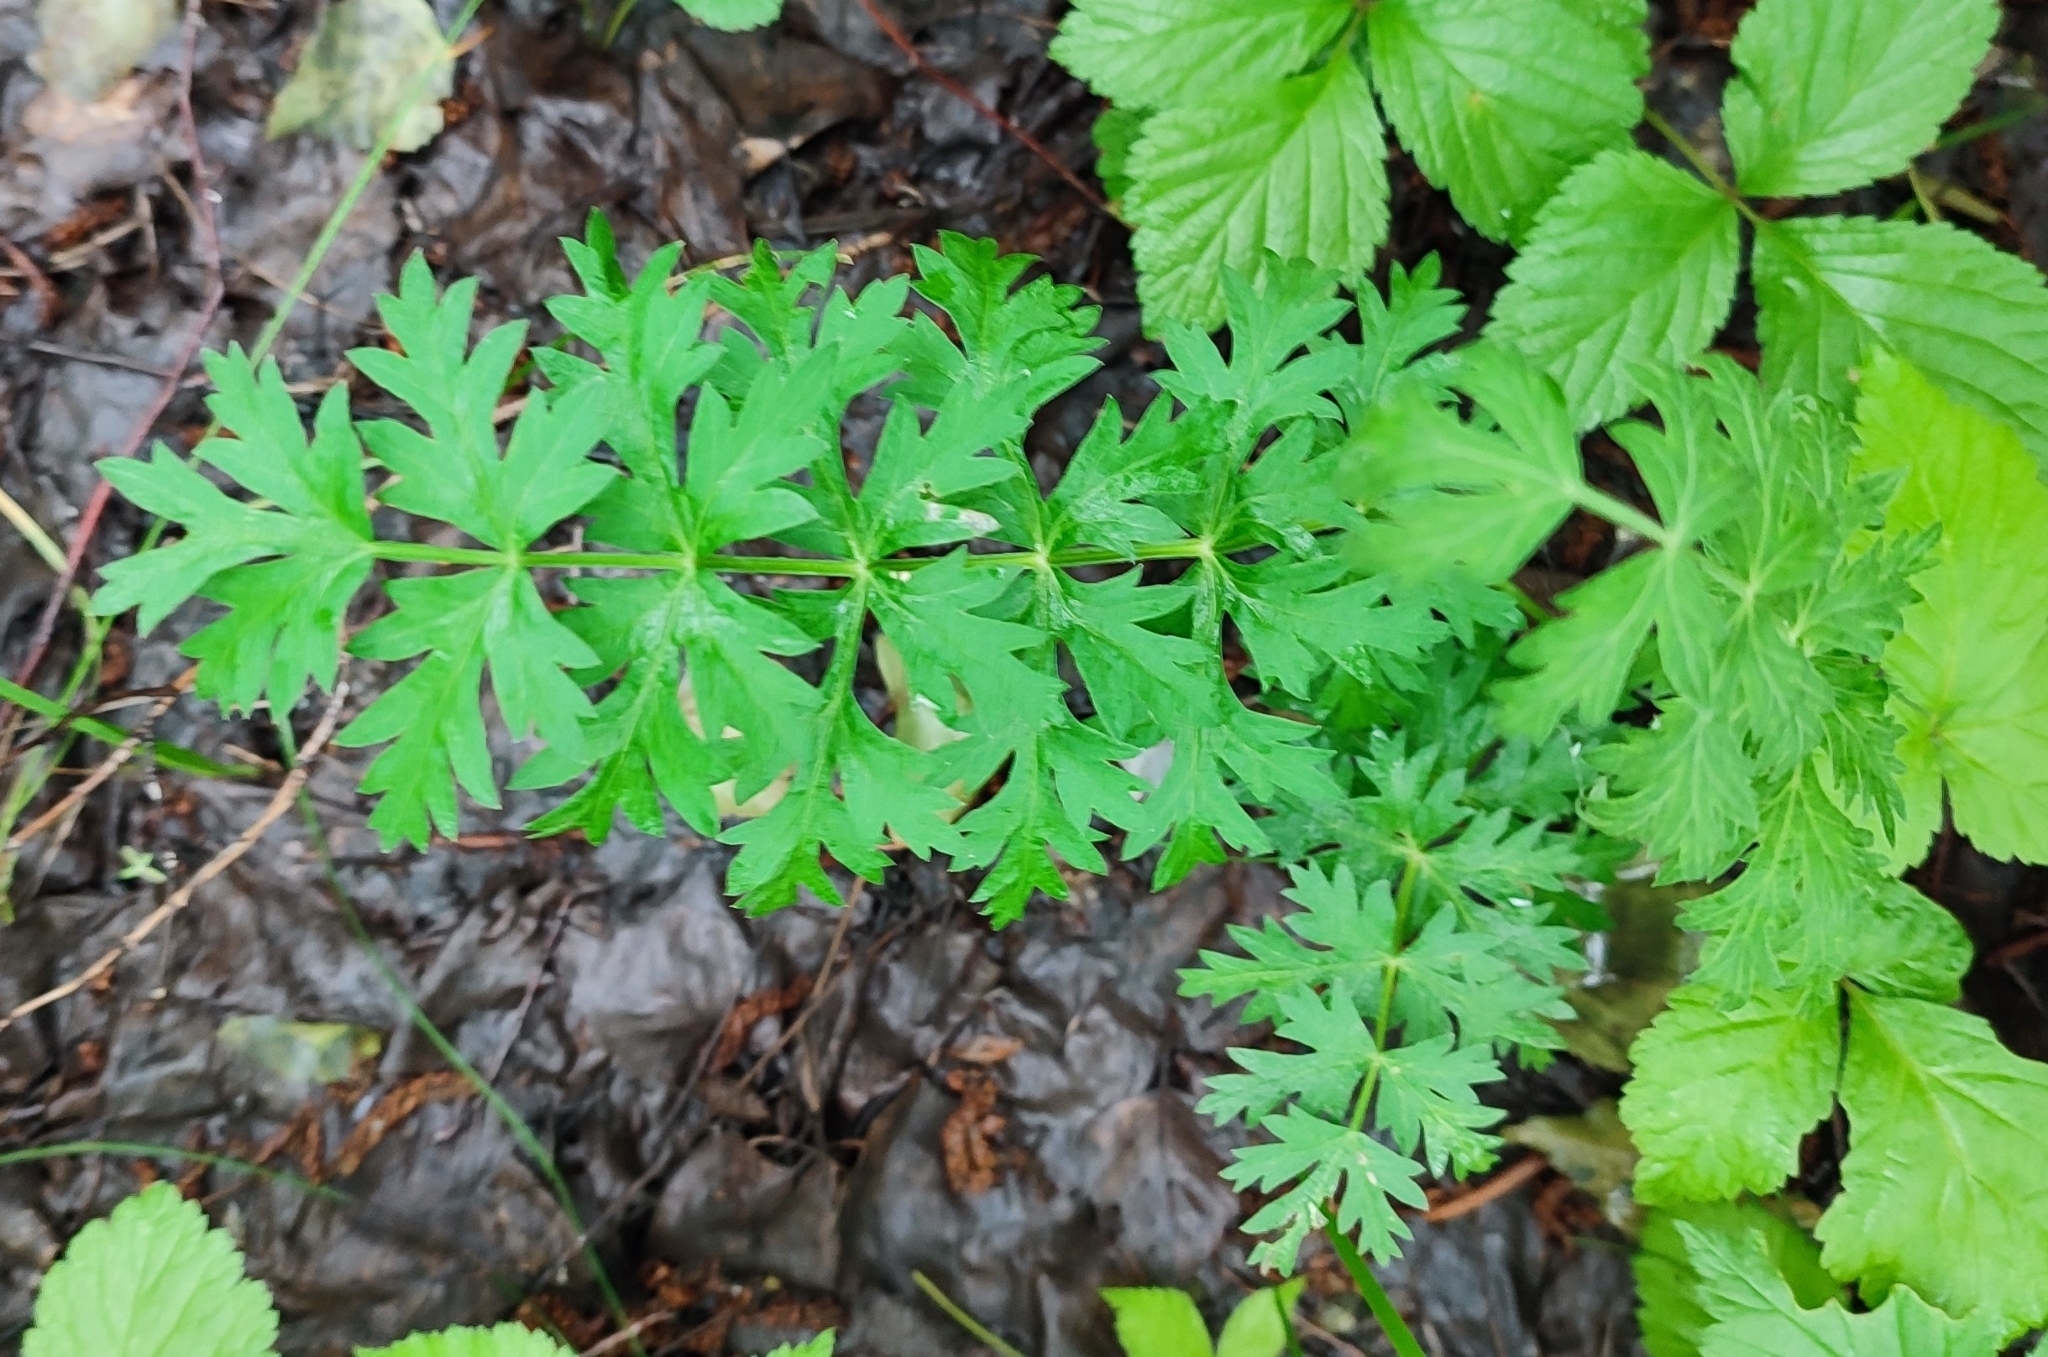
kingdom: Plantae
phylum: Tracheophyta
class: Magnoliopsida
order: Apiales
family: Apiaceae
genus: Seseli
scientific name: Seseli libanotis
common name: Mooncarrot
